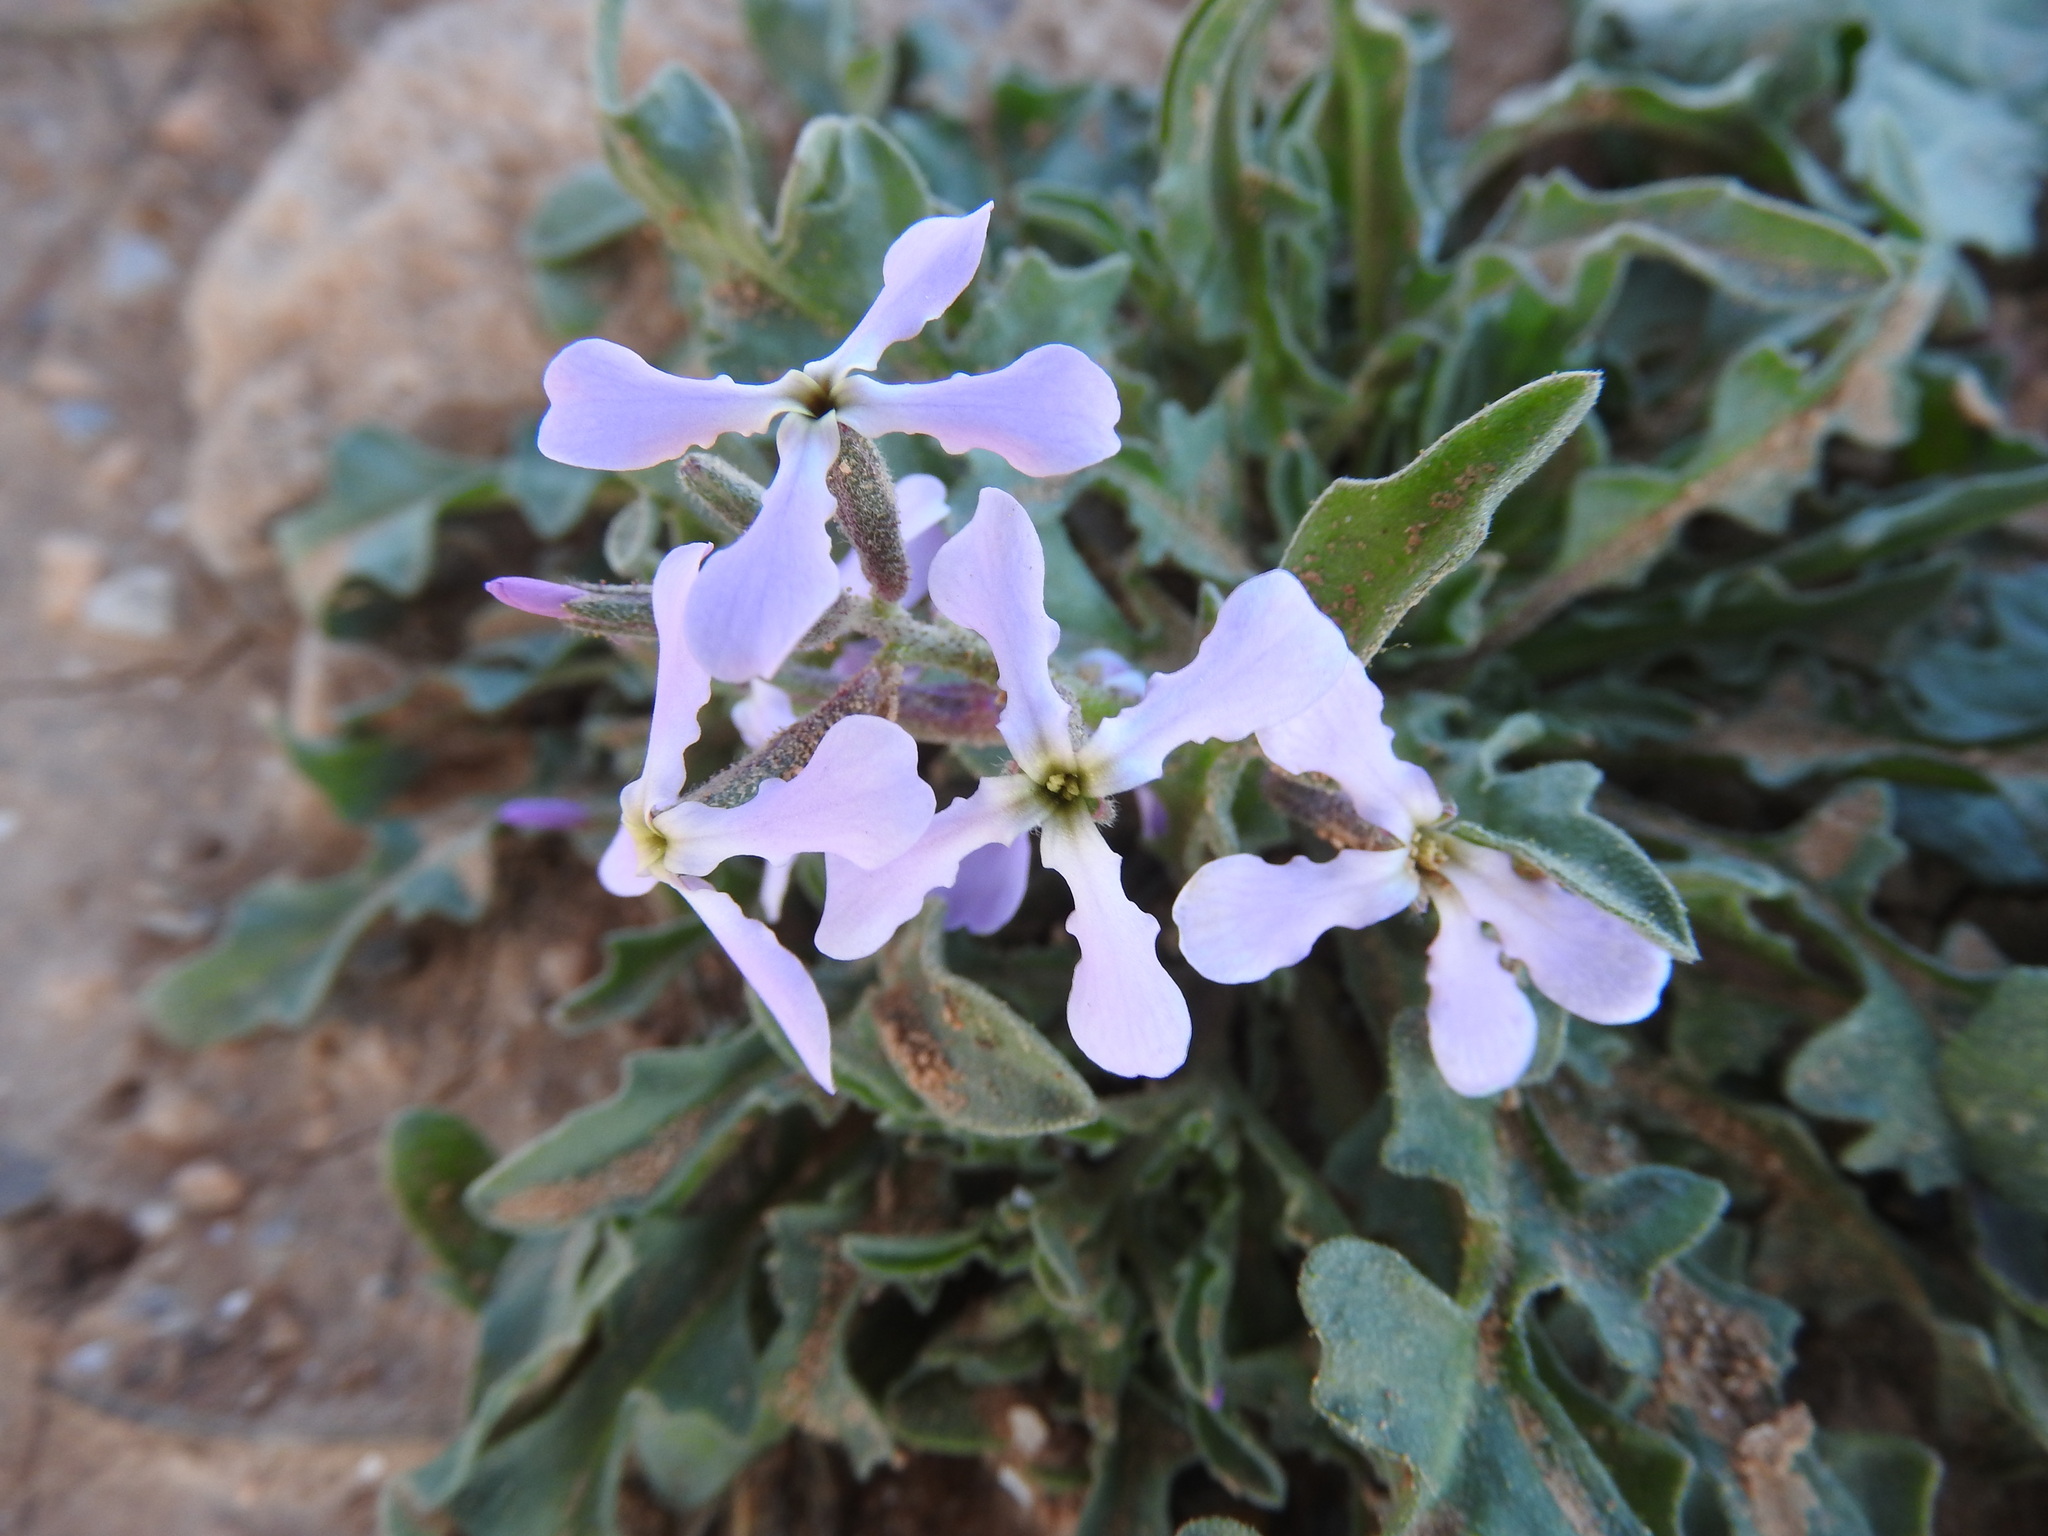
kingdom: Plantae
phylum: Tracheophyta
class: Magnoliopsida
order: Brassicales
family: Brassicaceae
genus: Matthiola
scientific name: Matthiola lunata
